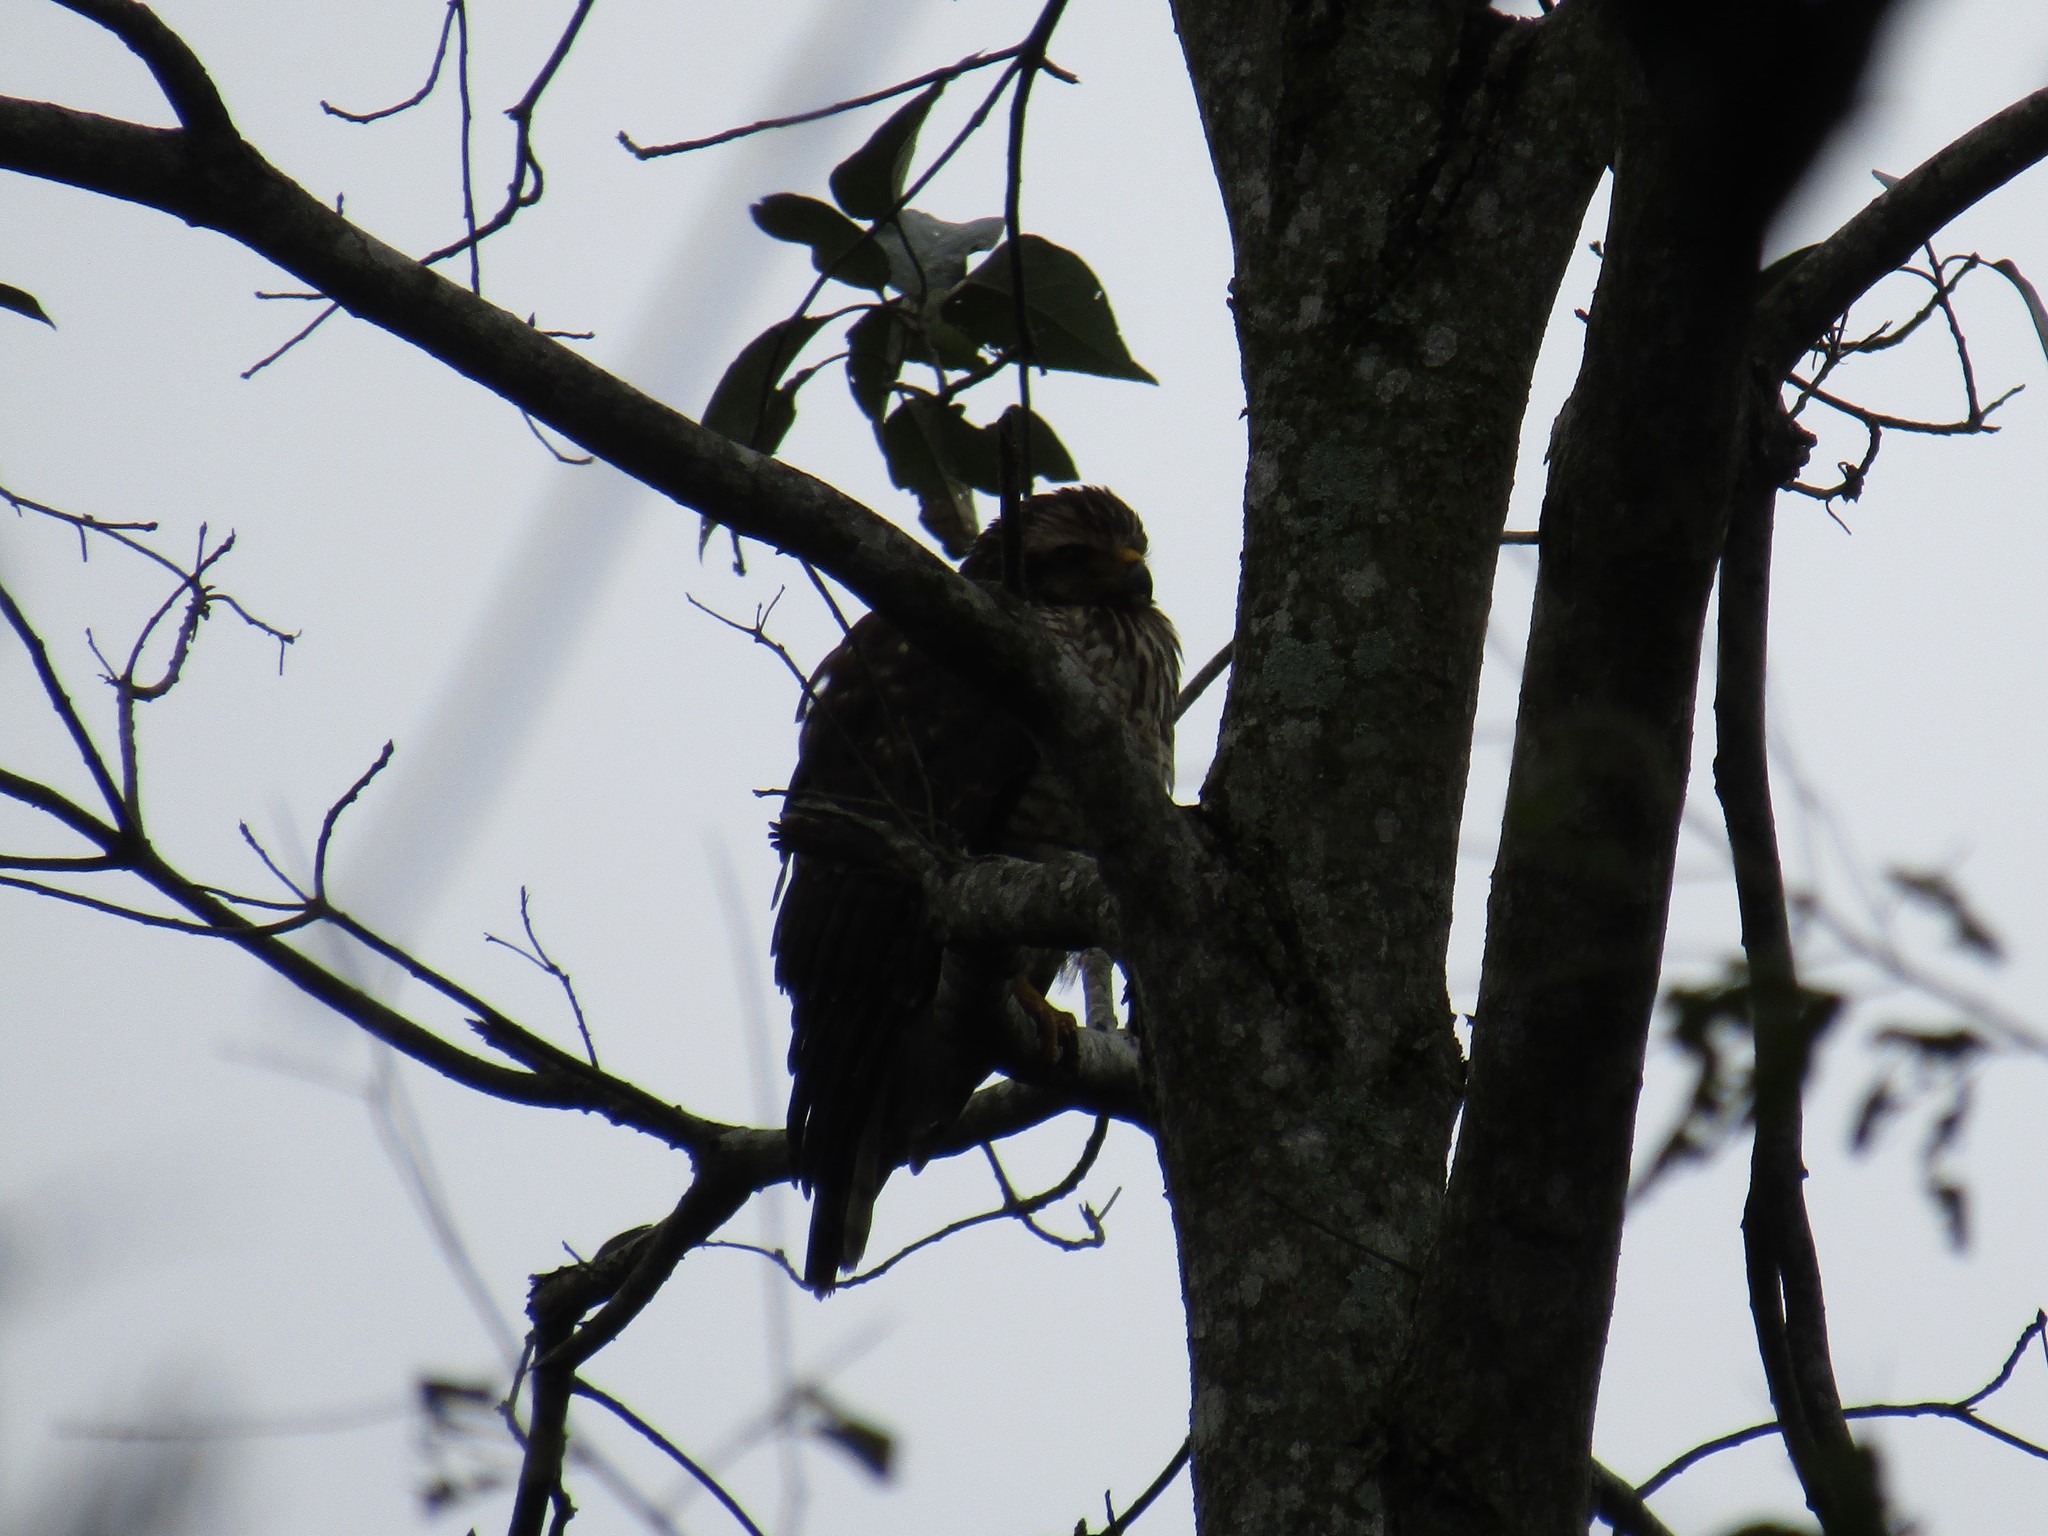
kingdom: Animalia
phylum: Chordata
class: Aves
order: Accipitriformes
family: Accipitridae
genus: Rupornis
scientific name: Rupornis magnirostris
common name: Roadside hawk
